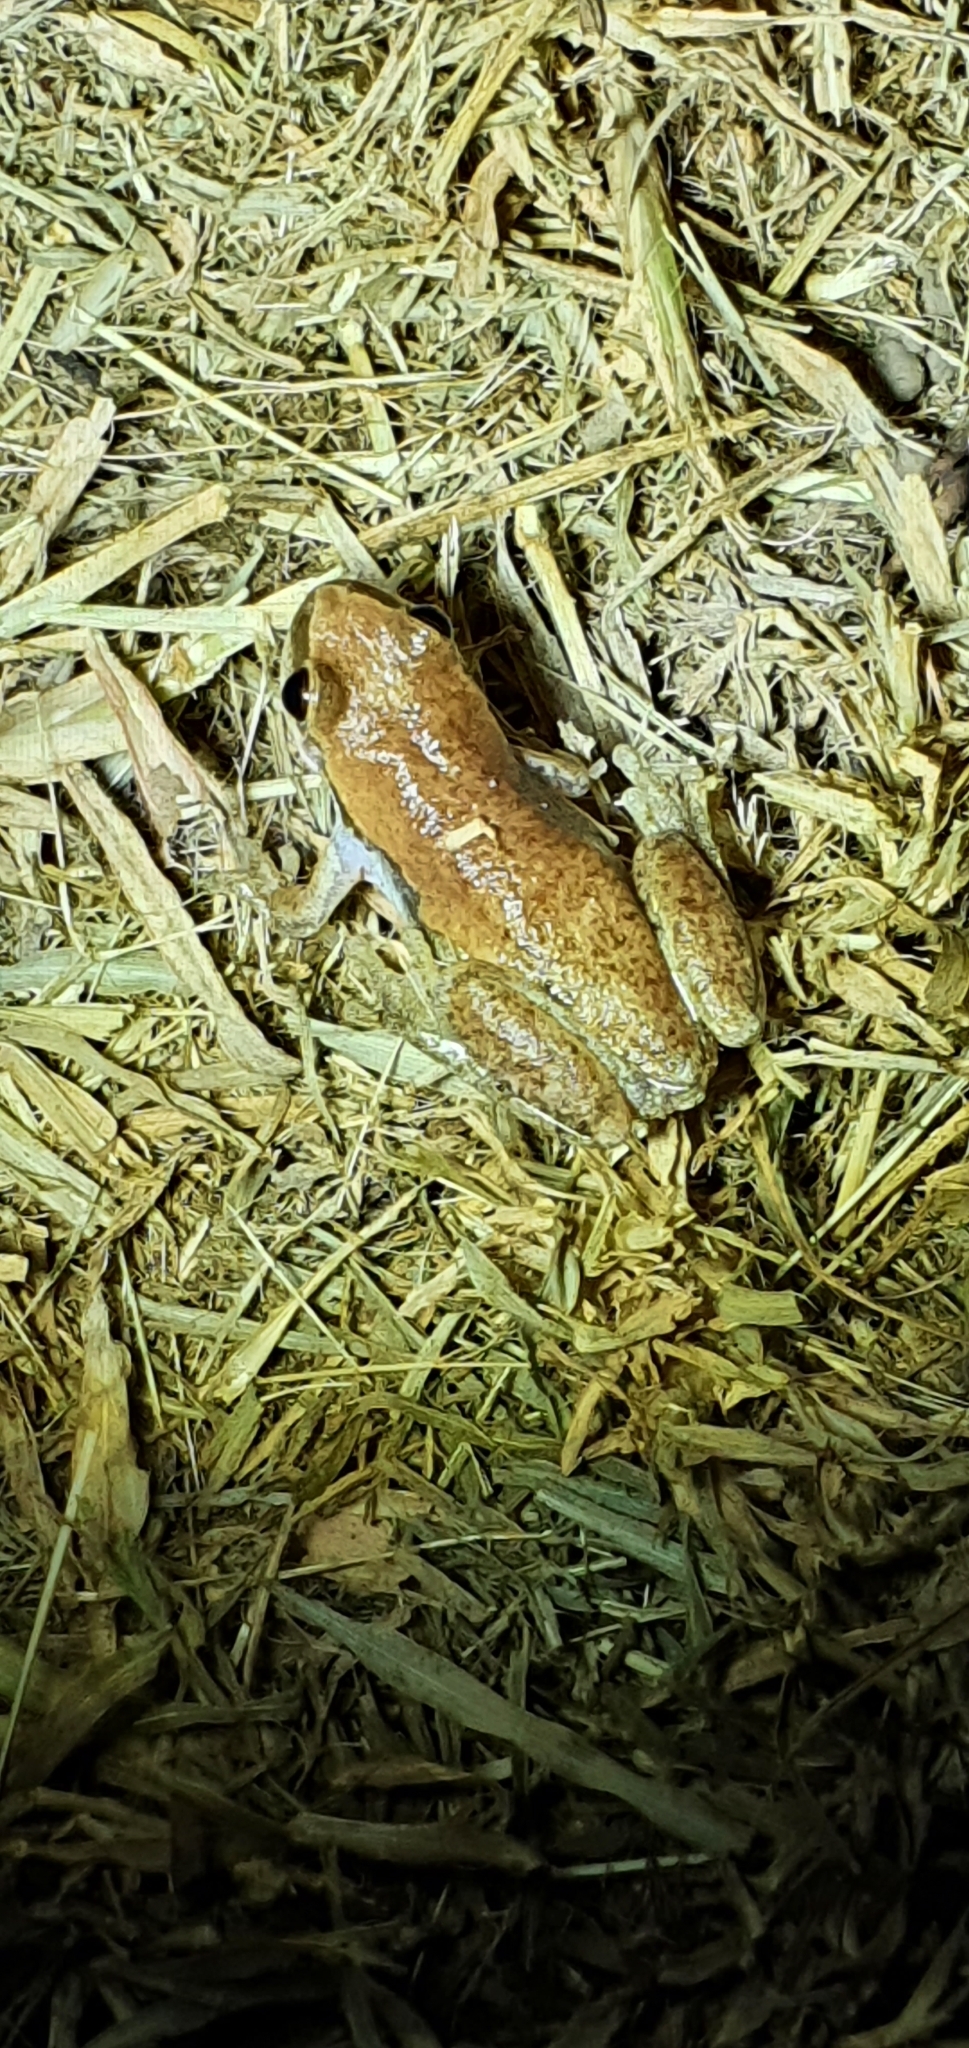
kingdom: Animalia
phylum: Chordata
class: Amphibia
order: Anura
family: Pelodryadidae
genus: Litoria
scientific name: Litoria rubella
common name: Desert tree frog
